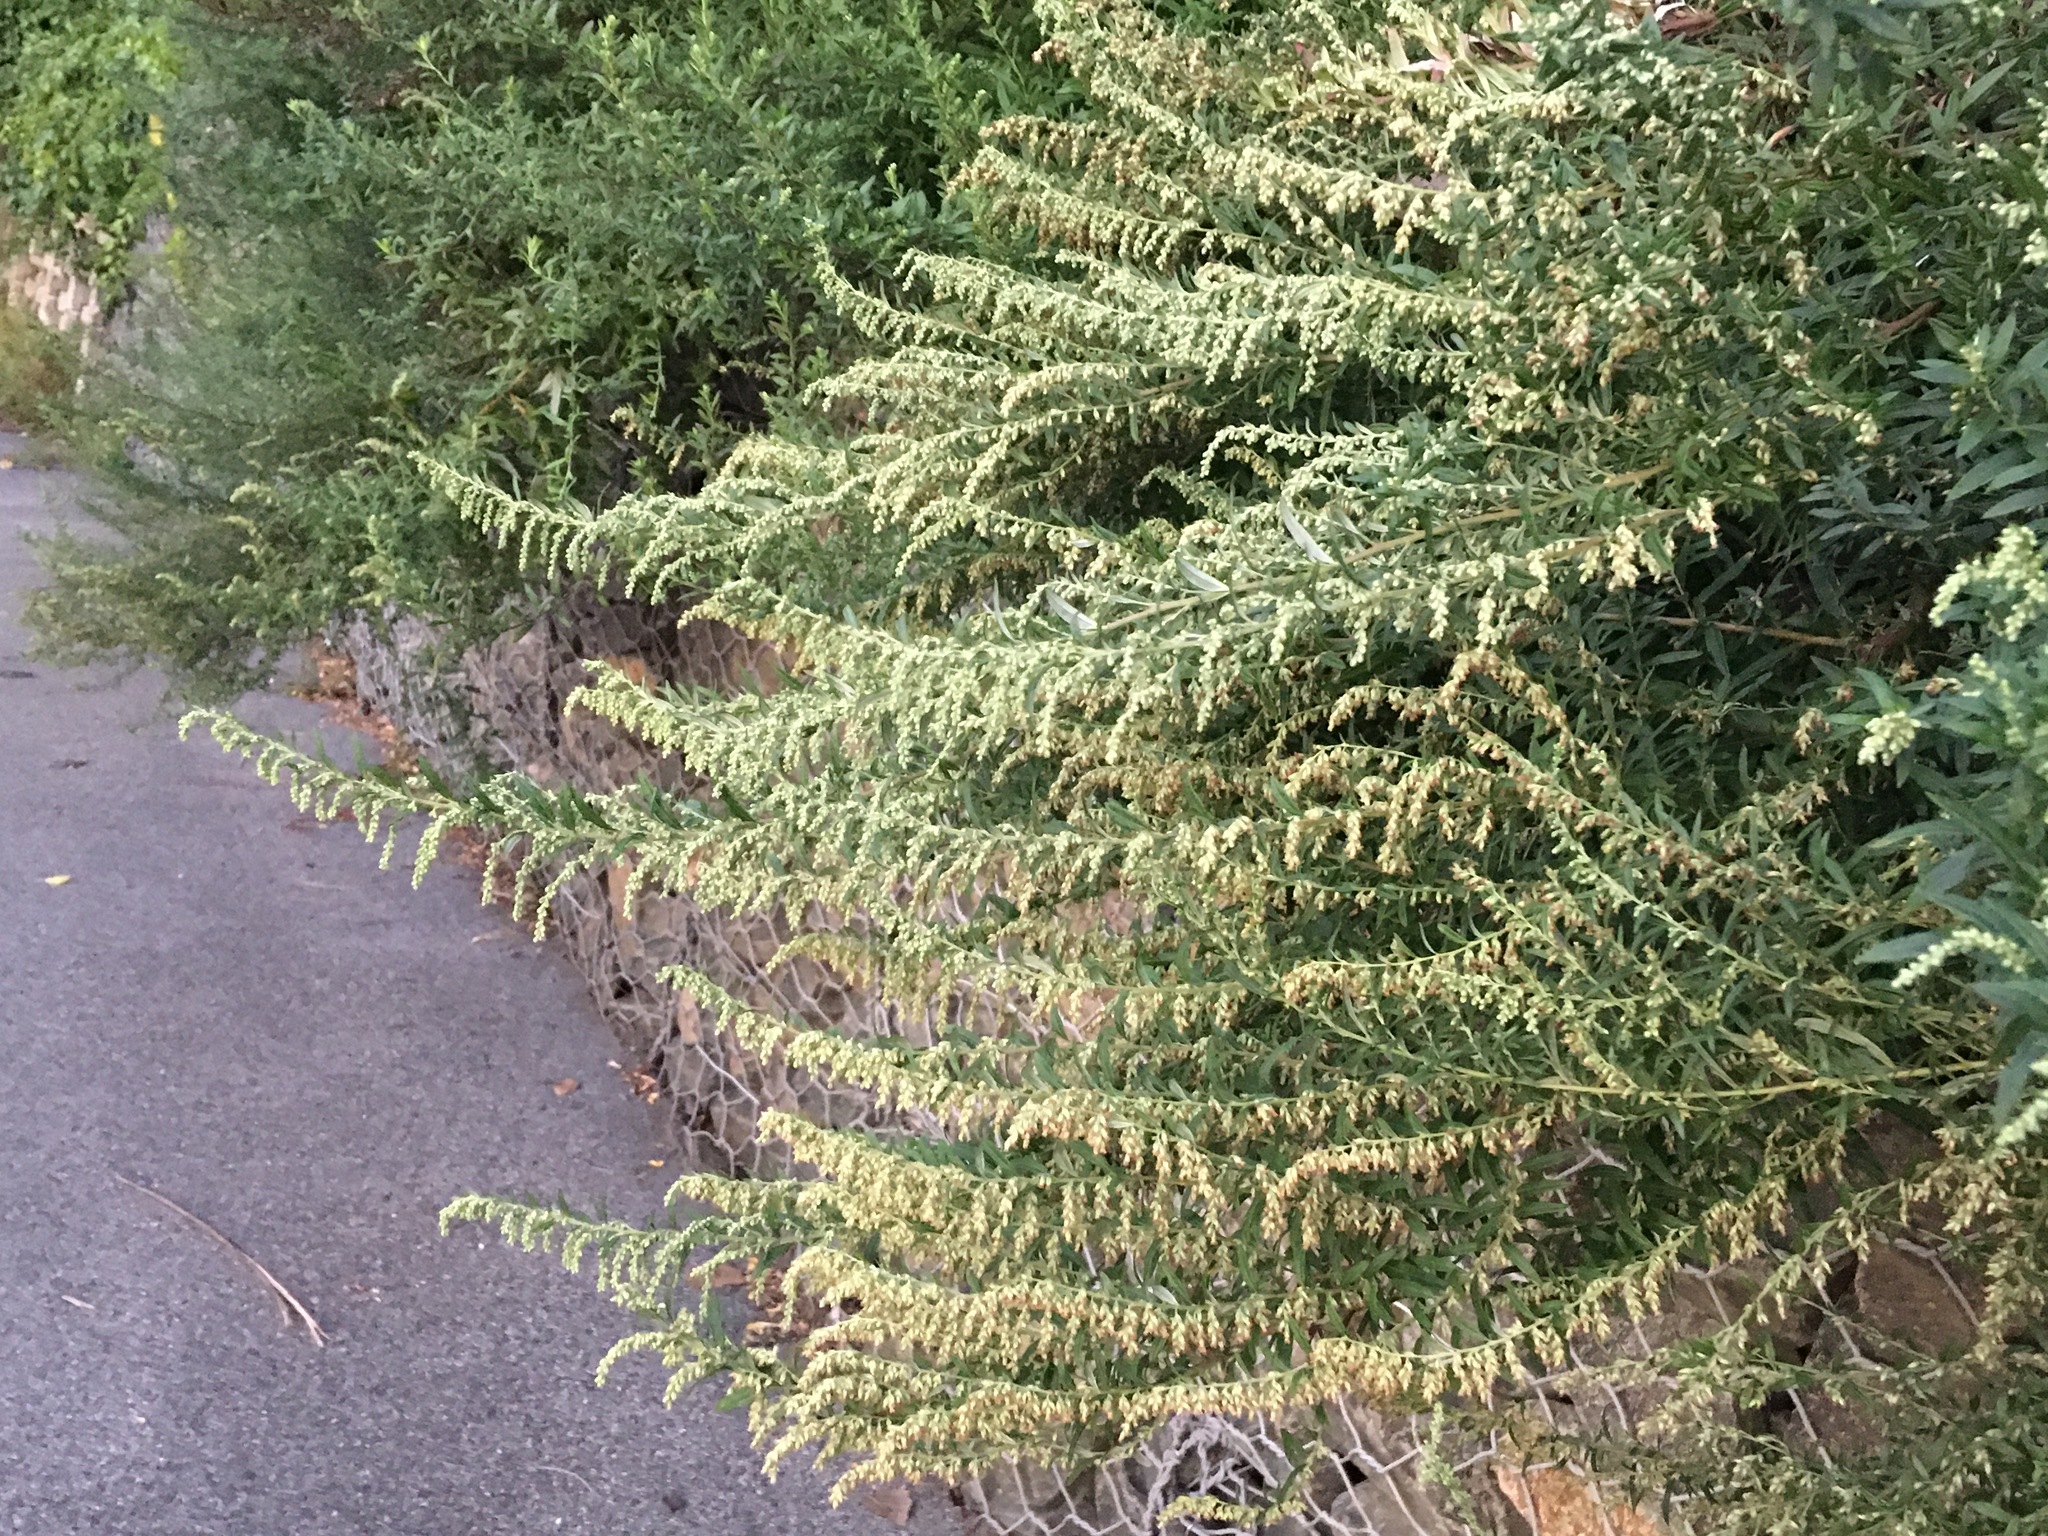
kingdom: Plantae
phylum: Tracheophyta
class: Magnoliopsida
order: Asterales
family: Asteraceae
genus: Artemisia
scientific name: Artemisia vulgaris
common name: Mugwort
